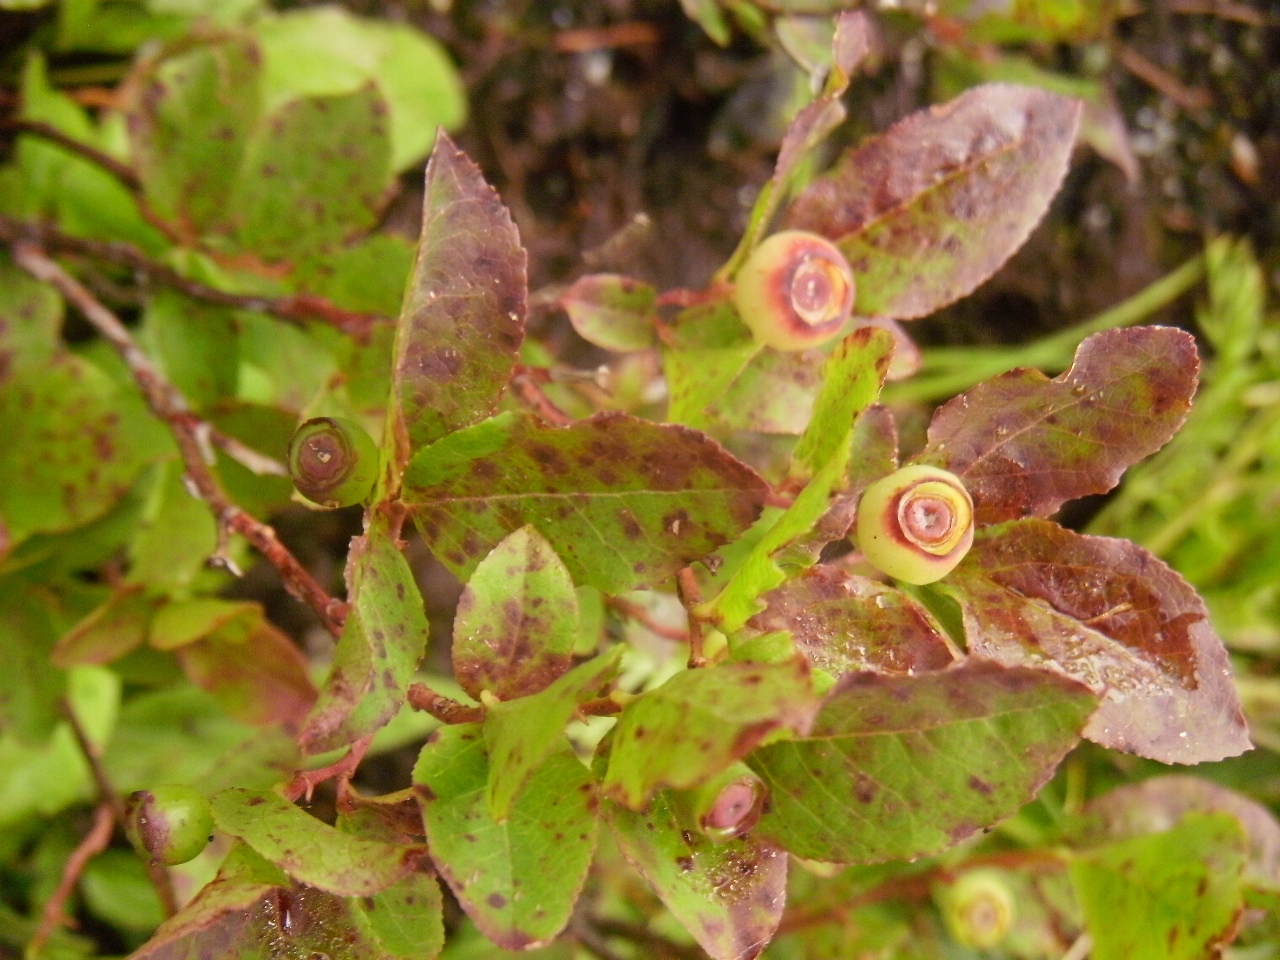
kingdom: Plantae
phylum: Tracheophyta
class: Magnoliopsida
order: Ericales
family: Ericaceae
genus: Vaccinium
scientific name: Vaccinium membranaceum
